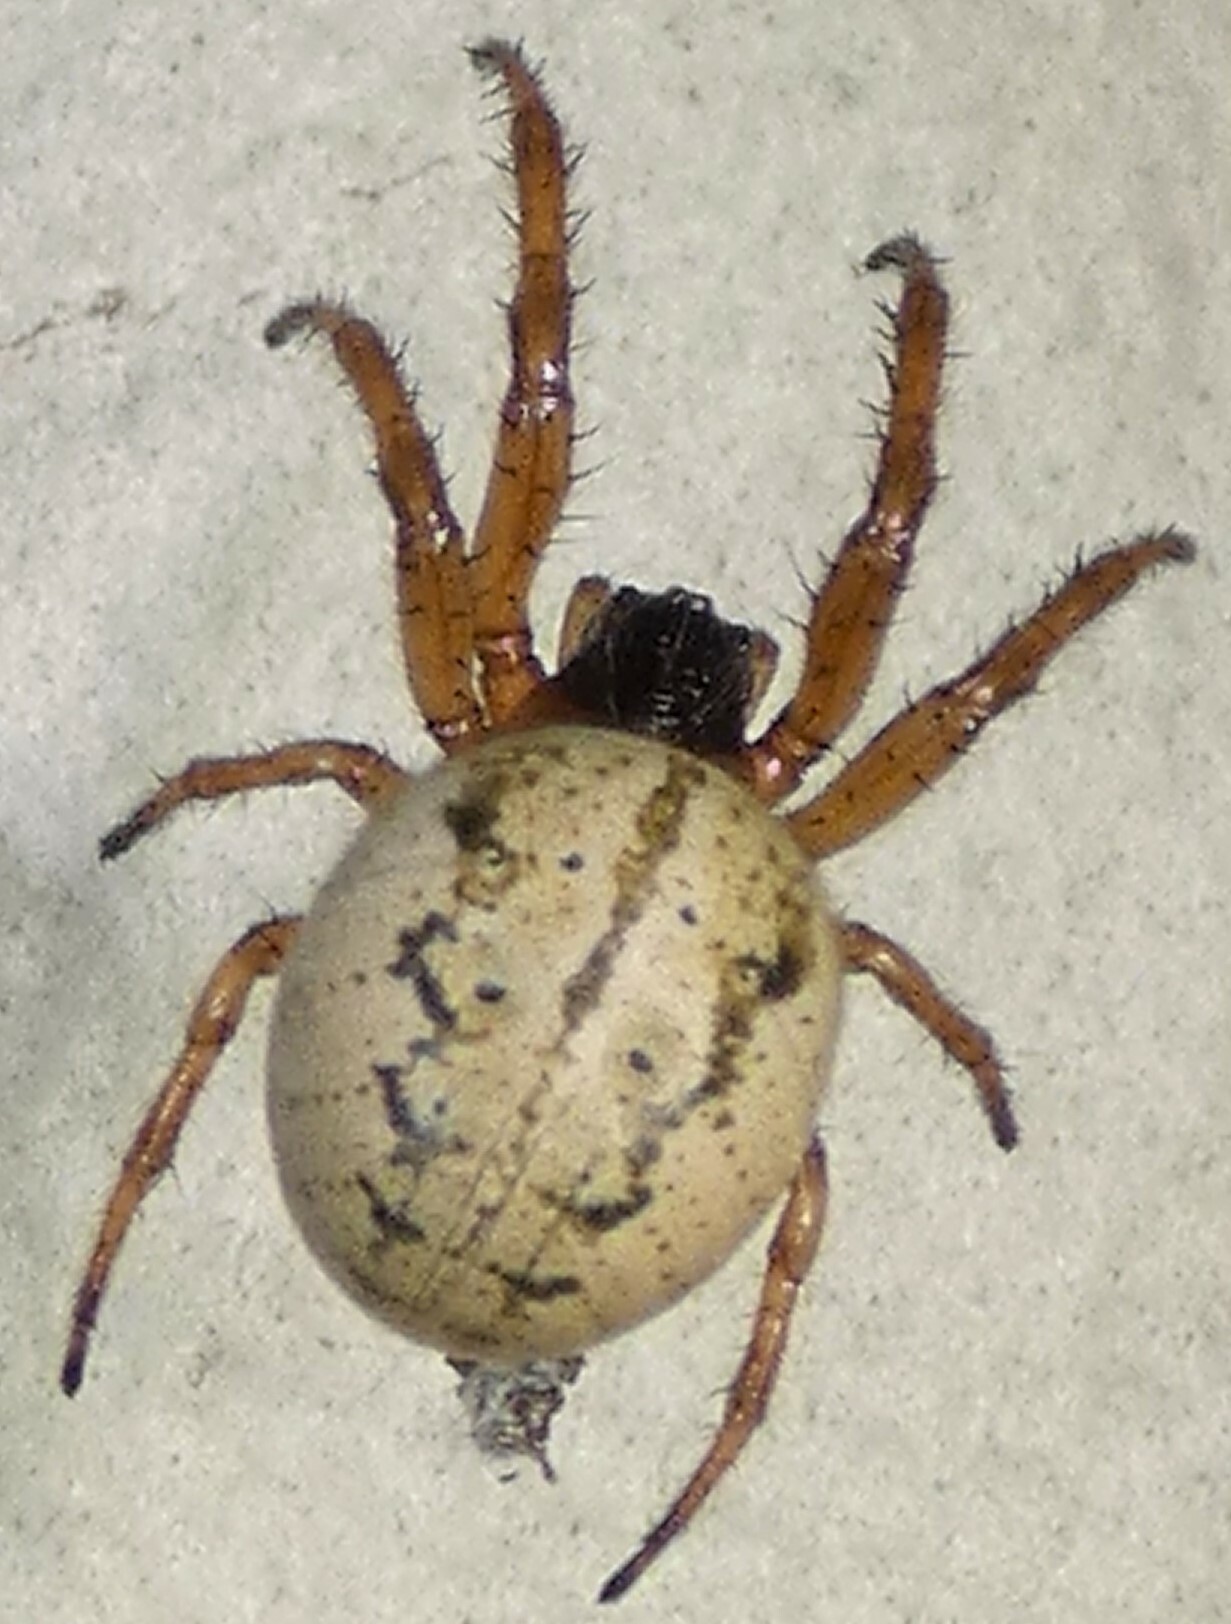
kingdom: Animalia
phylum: Arthropoda
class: Arachnida
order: Araneae
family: Araneidae
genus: Metazygia
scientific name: Metazygia wittfeldae
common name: Orb weavers
